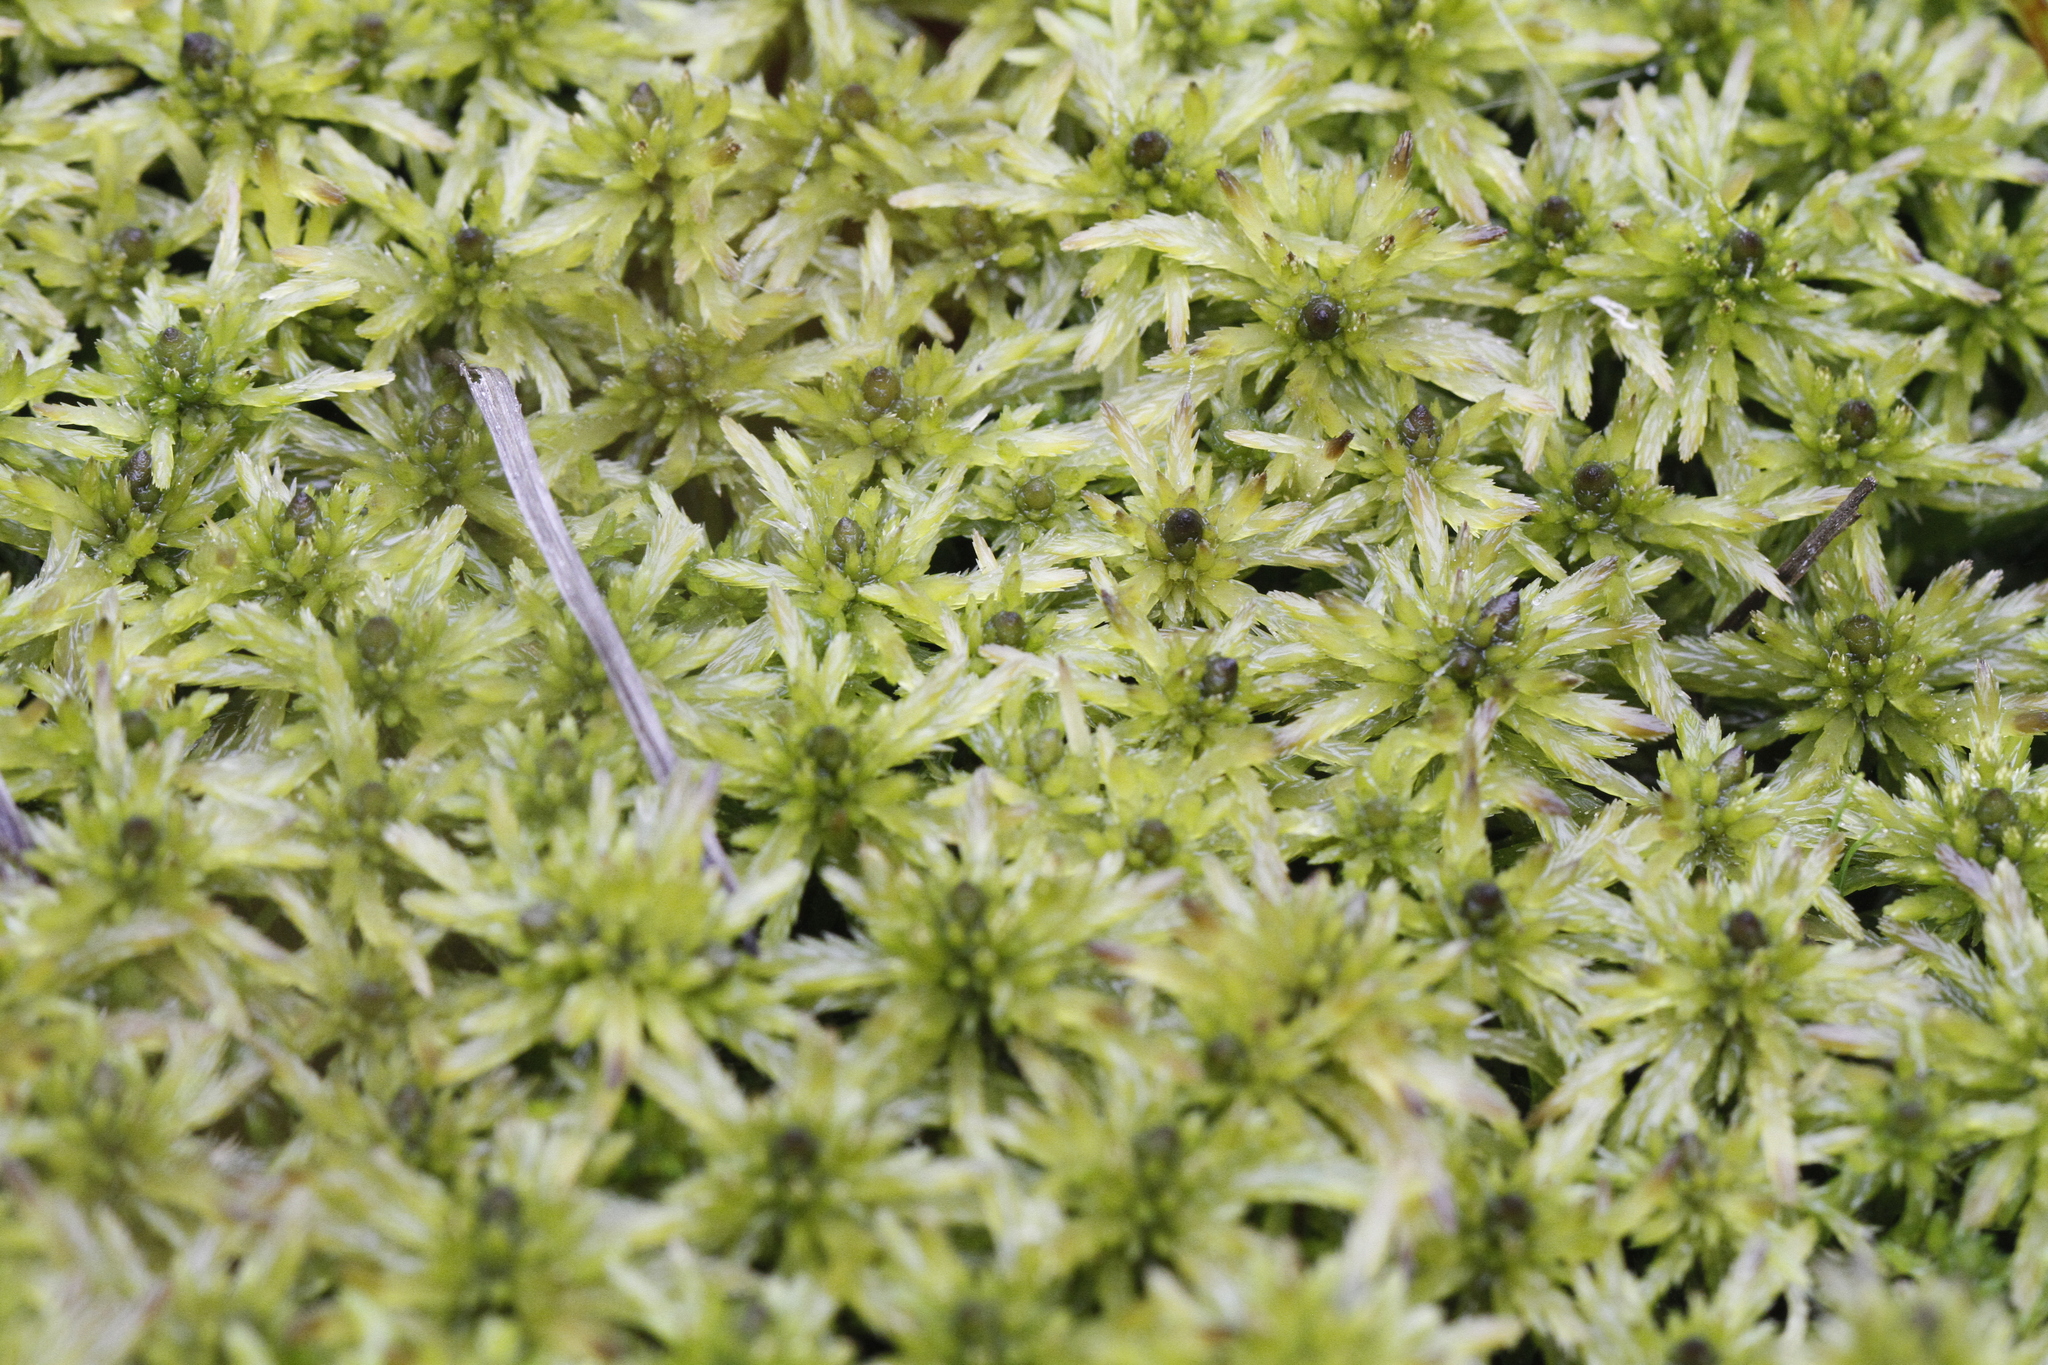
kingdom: Plantae
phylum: Bryophyta
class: Sphagnopsida
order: Sphagnales
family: Sphagnaceae
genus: Sphagnum
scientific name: Sphagnum lindbergii
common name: Lindberg's peat moss
